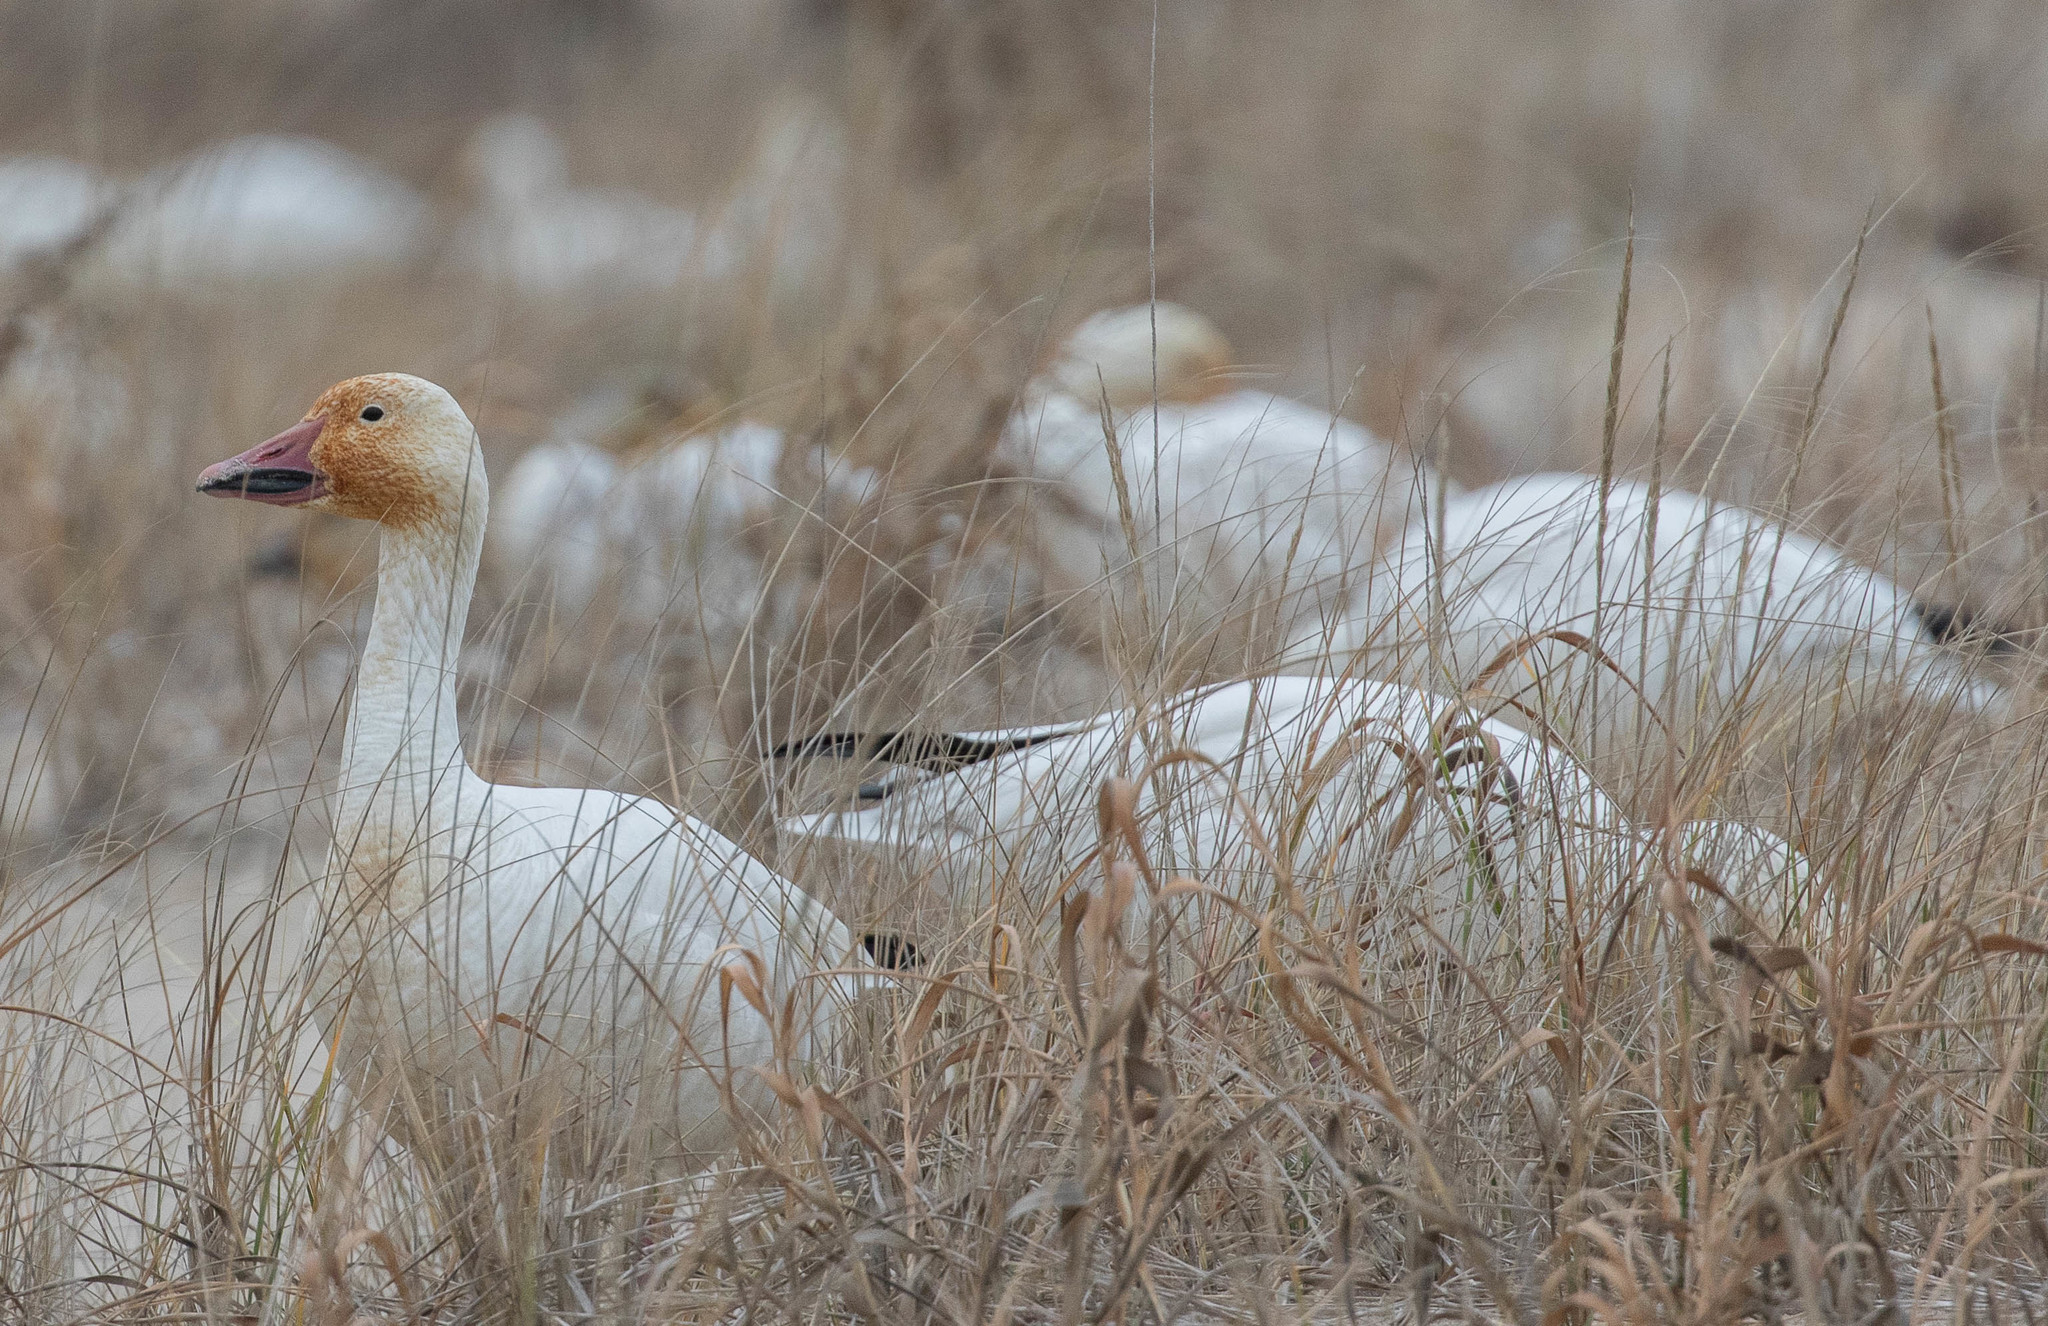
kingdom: Animalia
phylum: Chordata
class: Aves
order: Anseriformes
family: Anatidae
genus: Anser
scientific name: Anser caerulescens
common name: Snow goose
